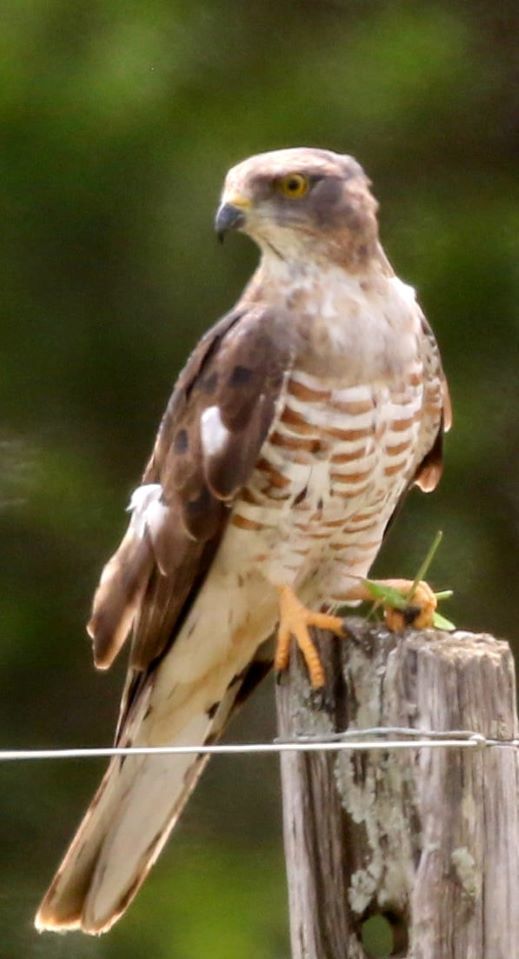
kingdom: Animalia
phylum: Chordata
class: Aves
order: Accipitriformes
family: Accipitridae
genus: Aviceda
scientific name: Aviceda cuculoides
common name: African cuckoo-hawk
